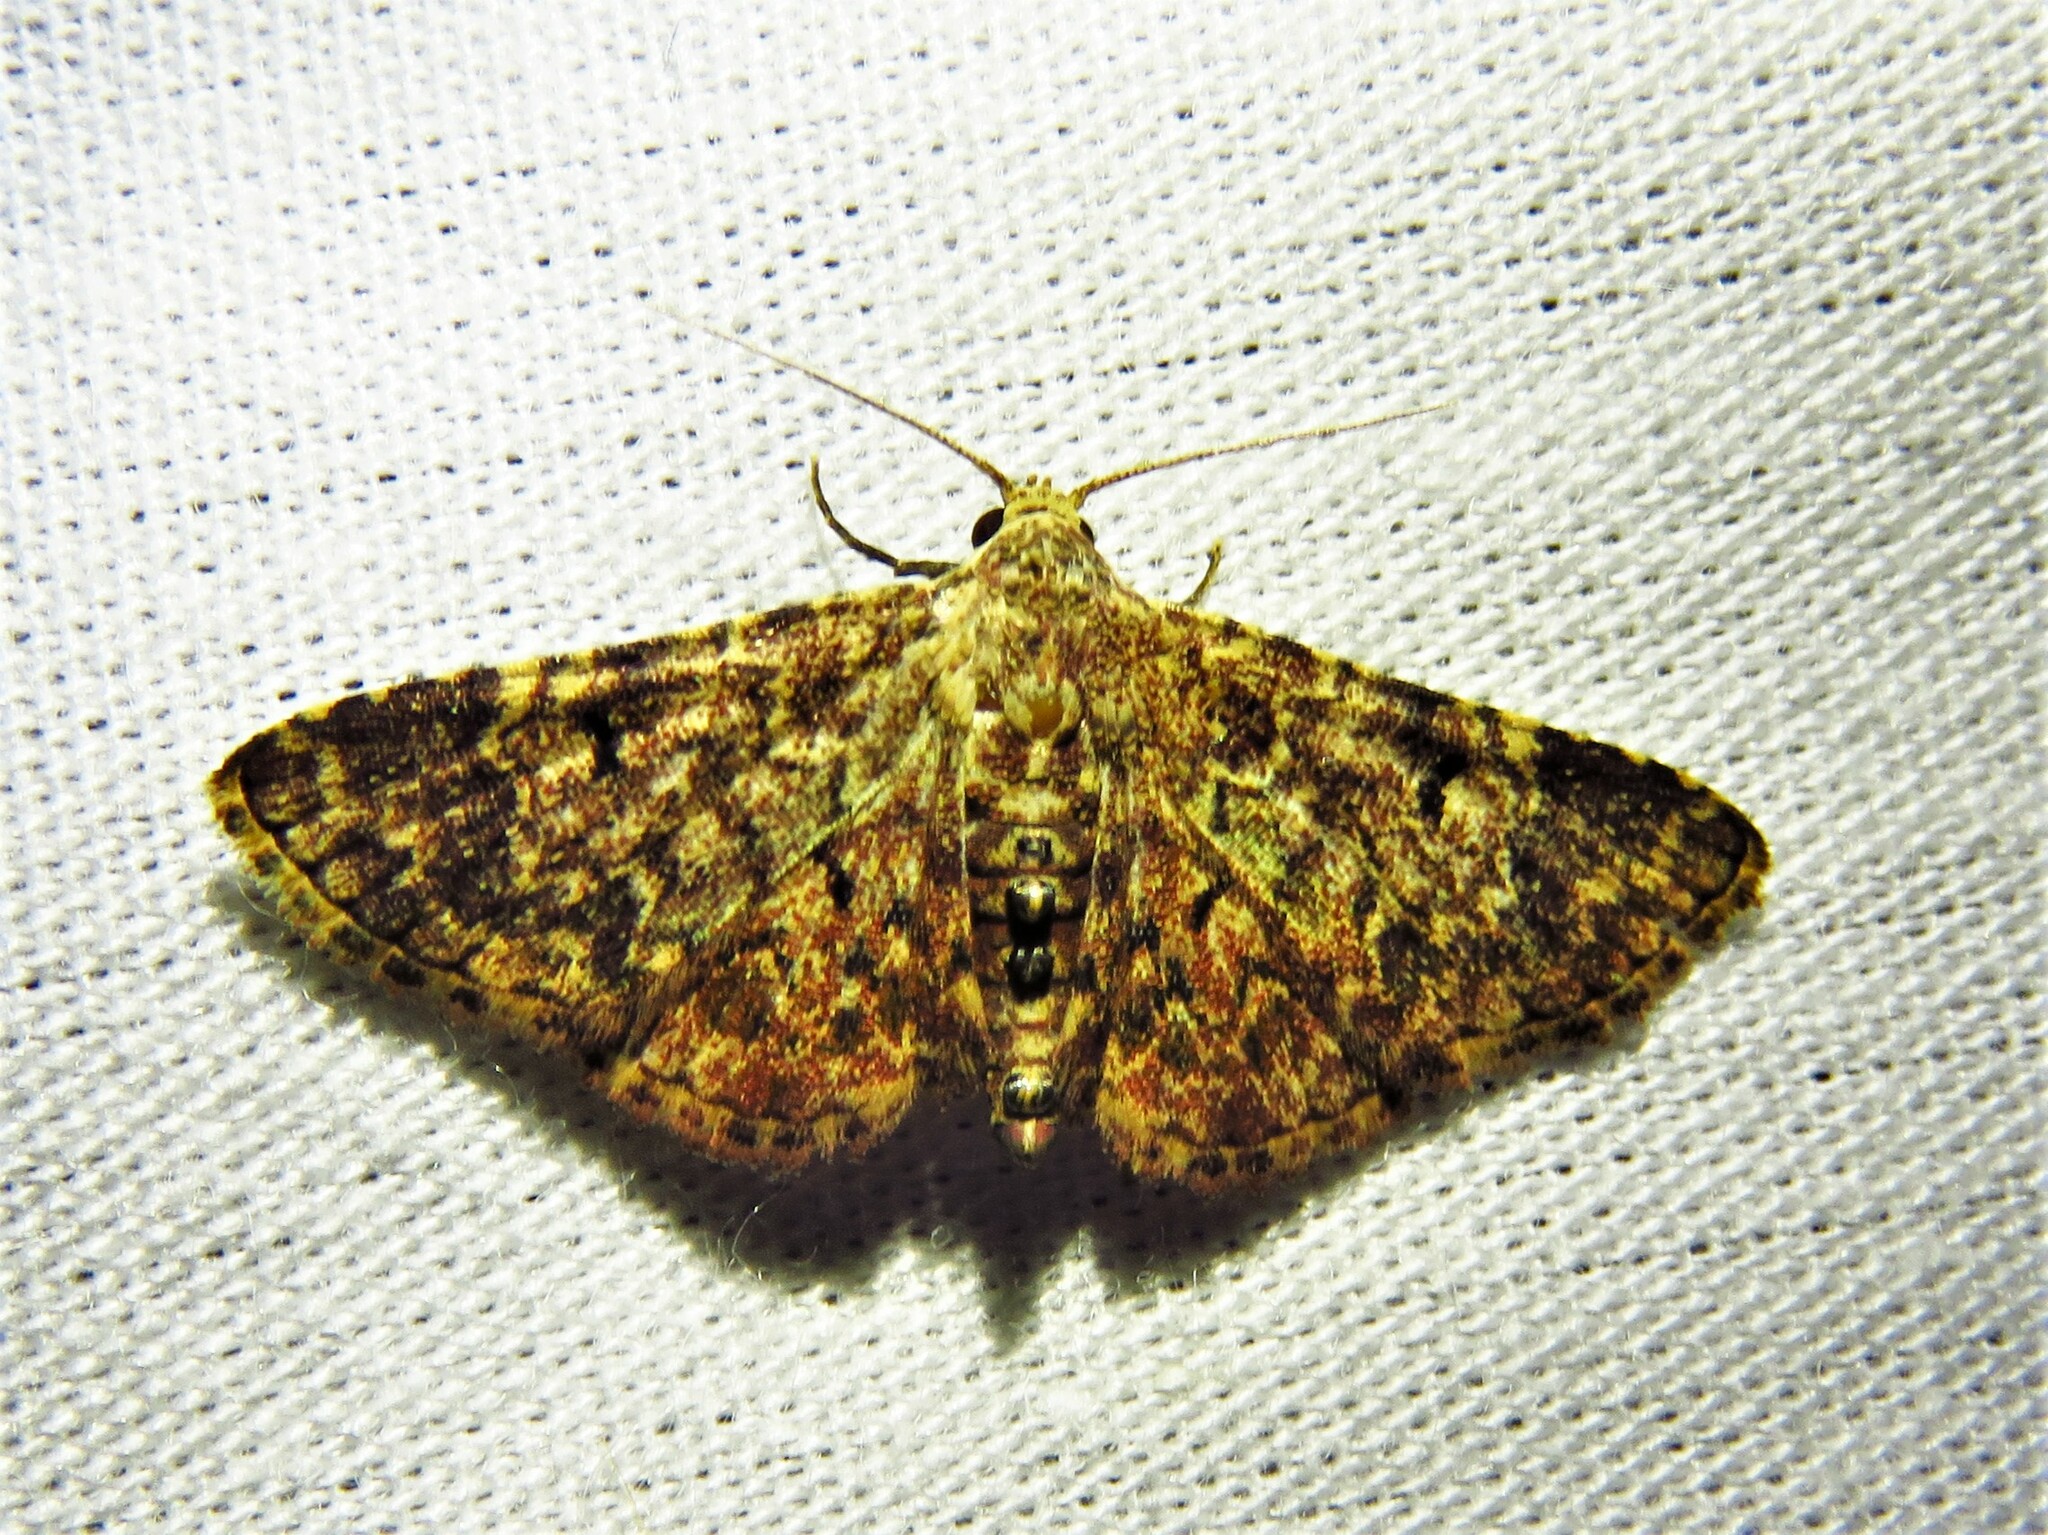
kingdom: Animalia
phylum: Arthropoda
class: Insecta
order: Lepidoptera
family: Noctuidae
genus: Haemaphlebia
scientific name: Haemaphlebia phaeomicta
